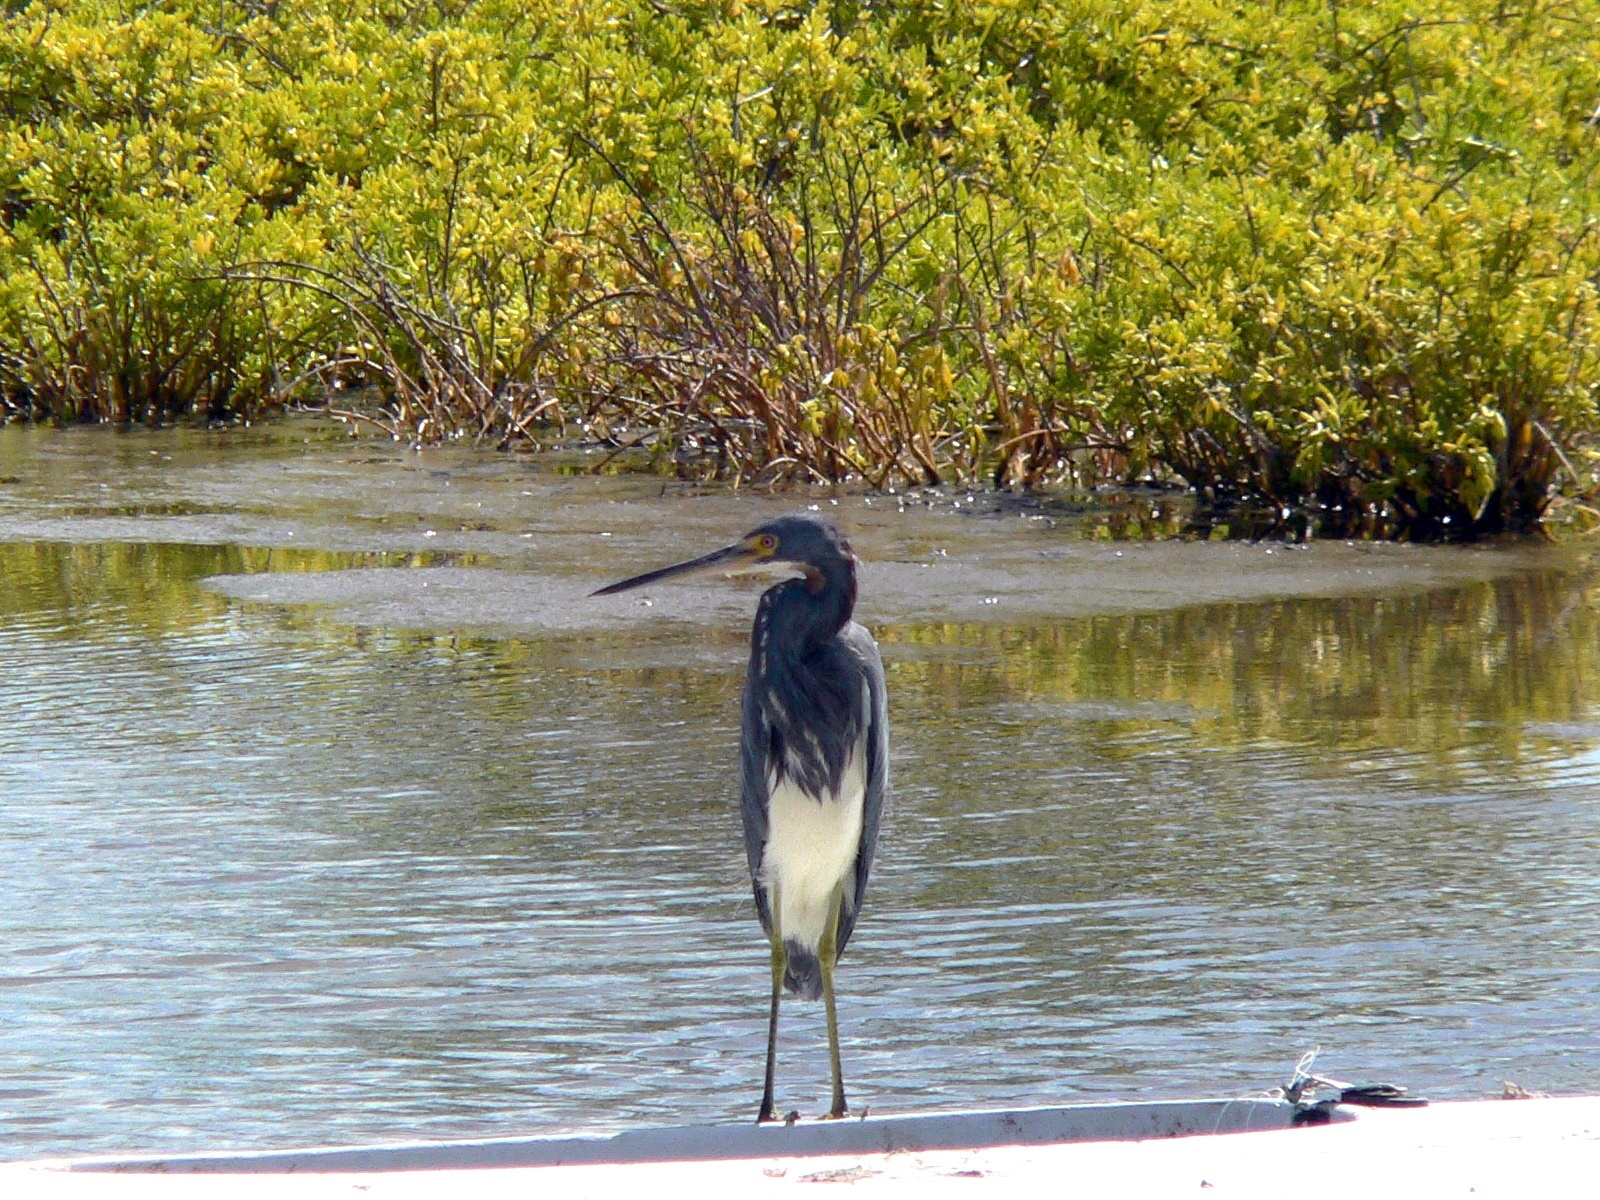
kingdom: Animalia
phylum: Chordata
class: Aves
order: Pelecaniformes
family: Ardeidae
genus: Egretta
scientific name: Egretta tricolor
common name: Tricolored heron
